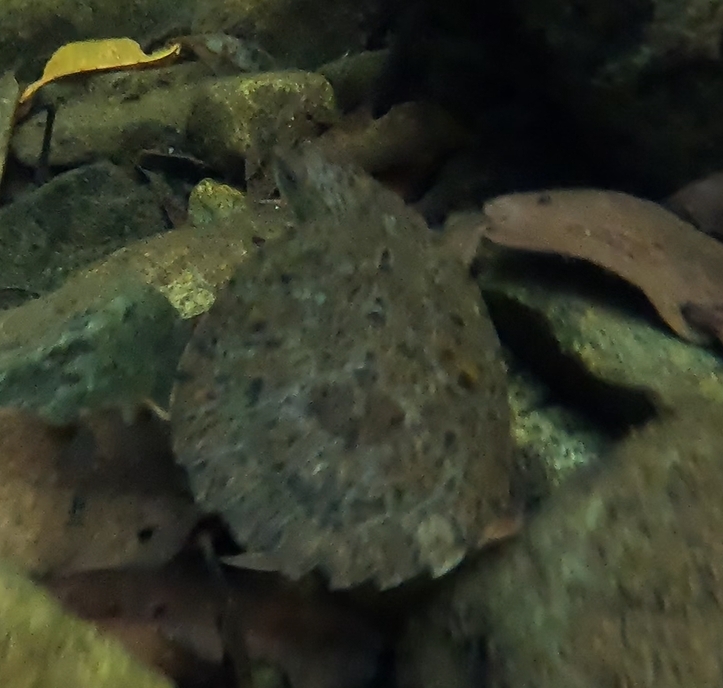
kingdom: Animalia
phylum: Chordata
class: Testudines
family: Chelidae
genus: Myuchelys
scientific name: Myuchelys latisternum
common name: Serrated snapping turtle
